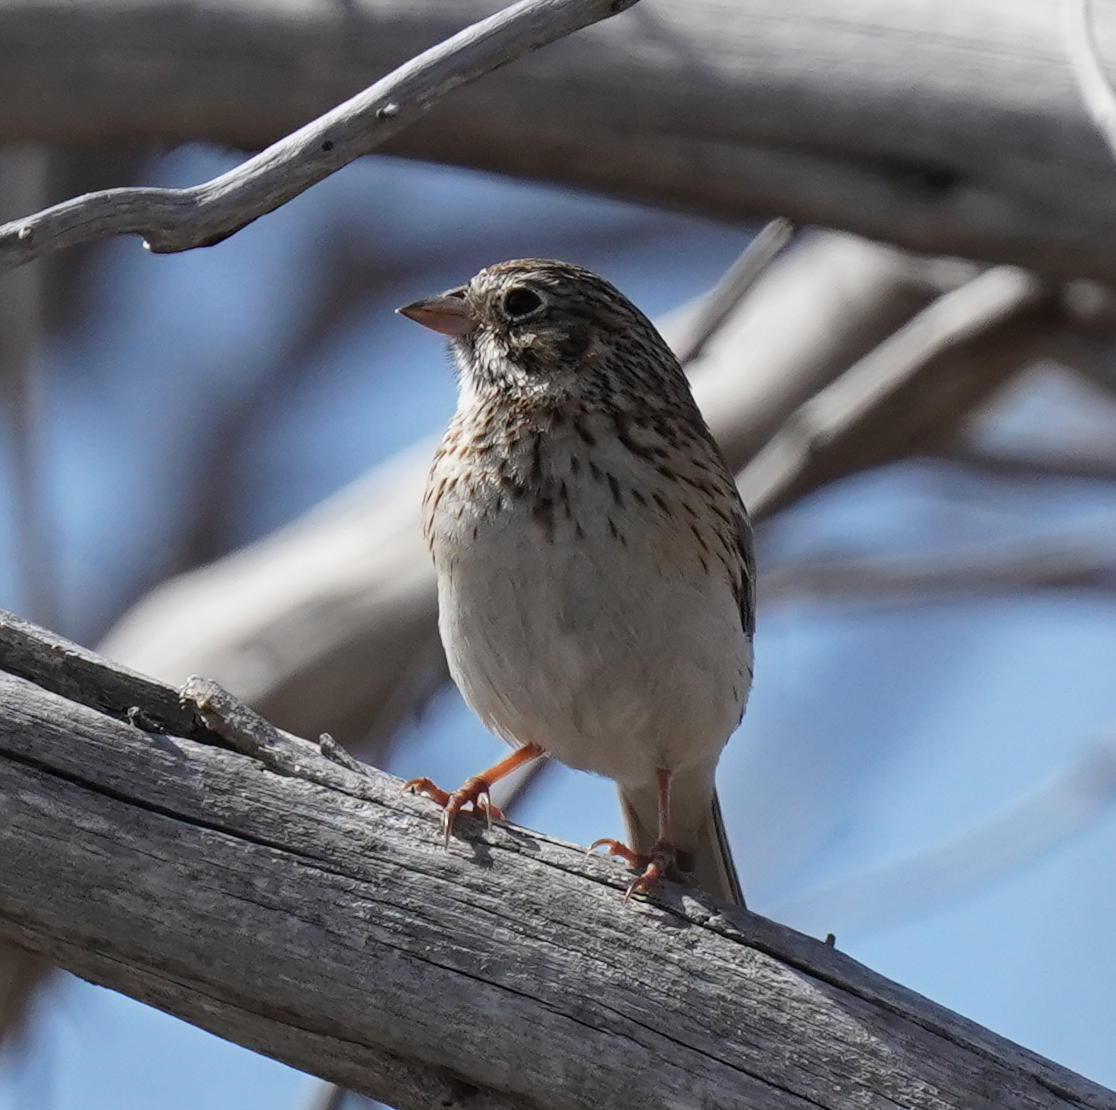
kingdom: Animalia
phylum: Chordata
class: Aves
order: Passeriformes
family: Passerellidae
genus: Pooecetes
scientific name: Pooecetes gramineus
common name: Vesper sparrow
